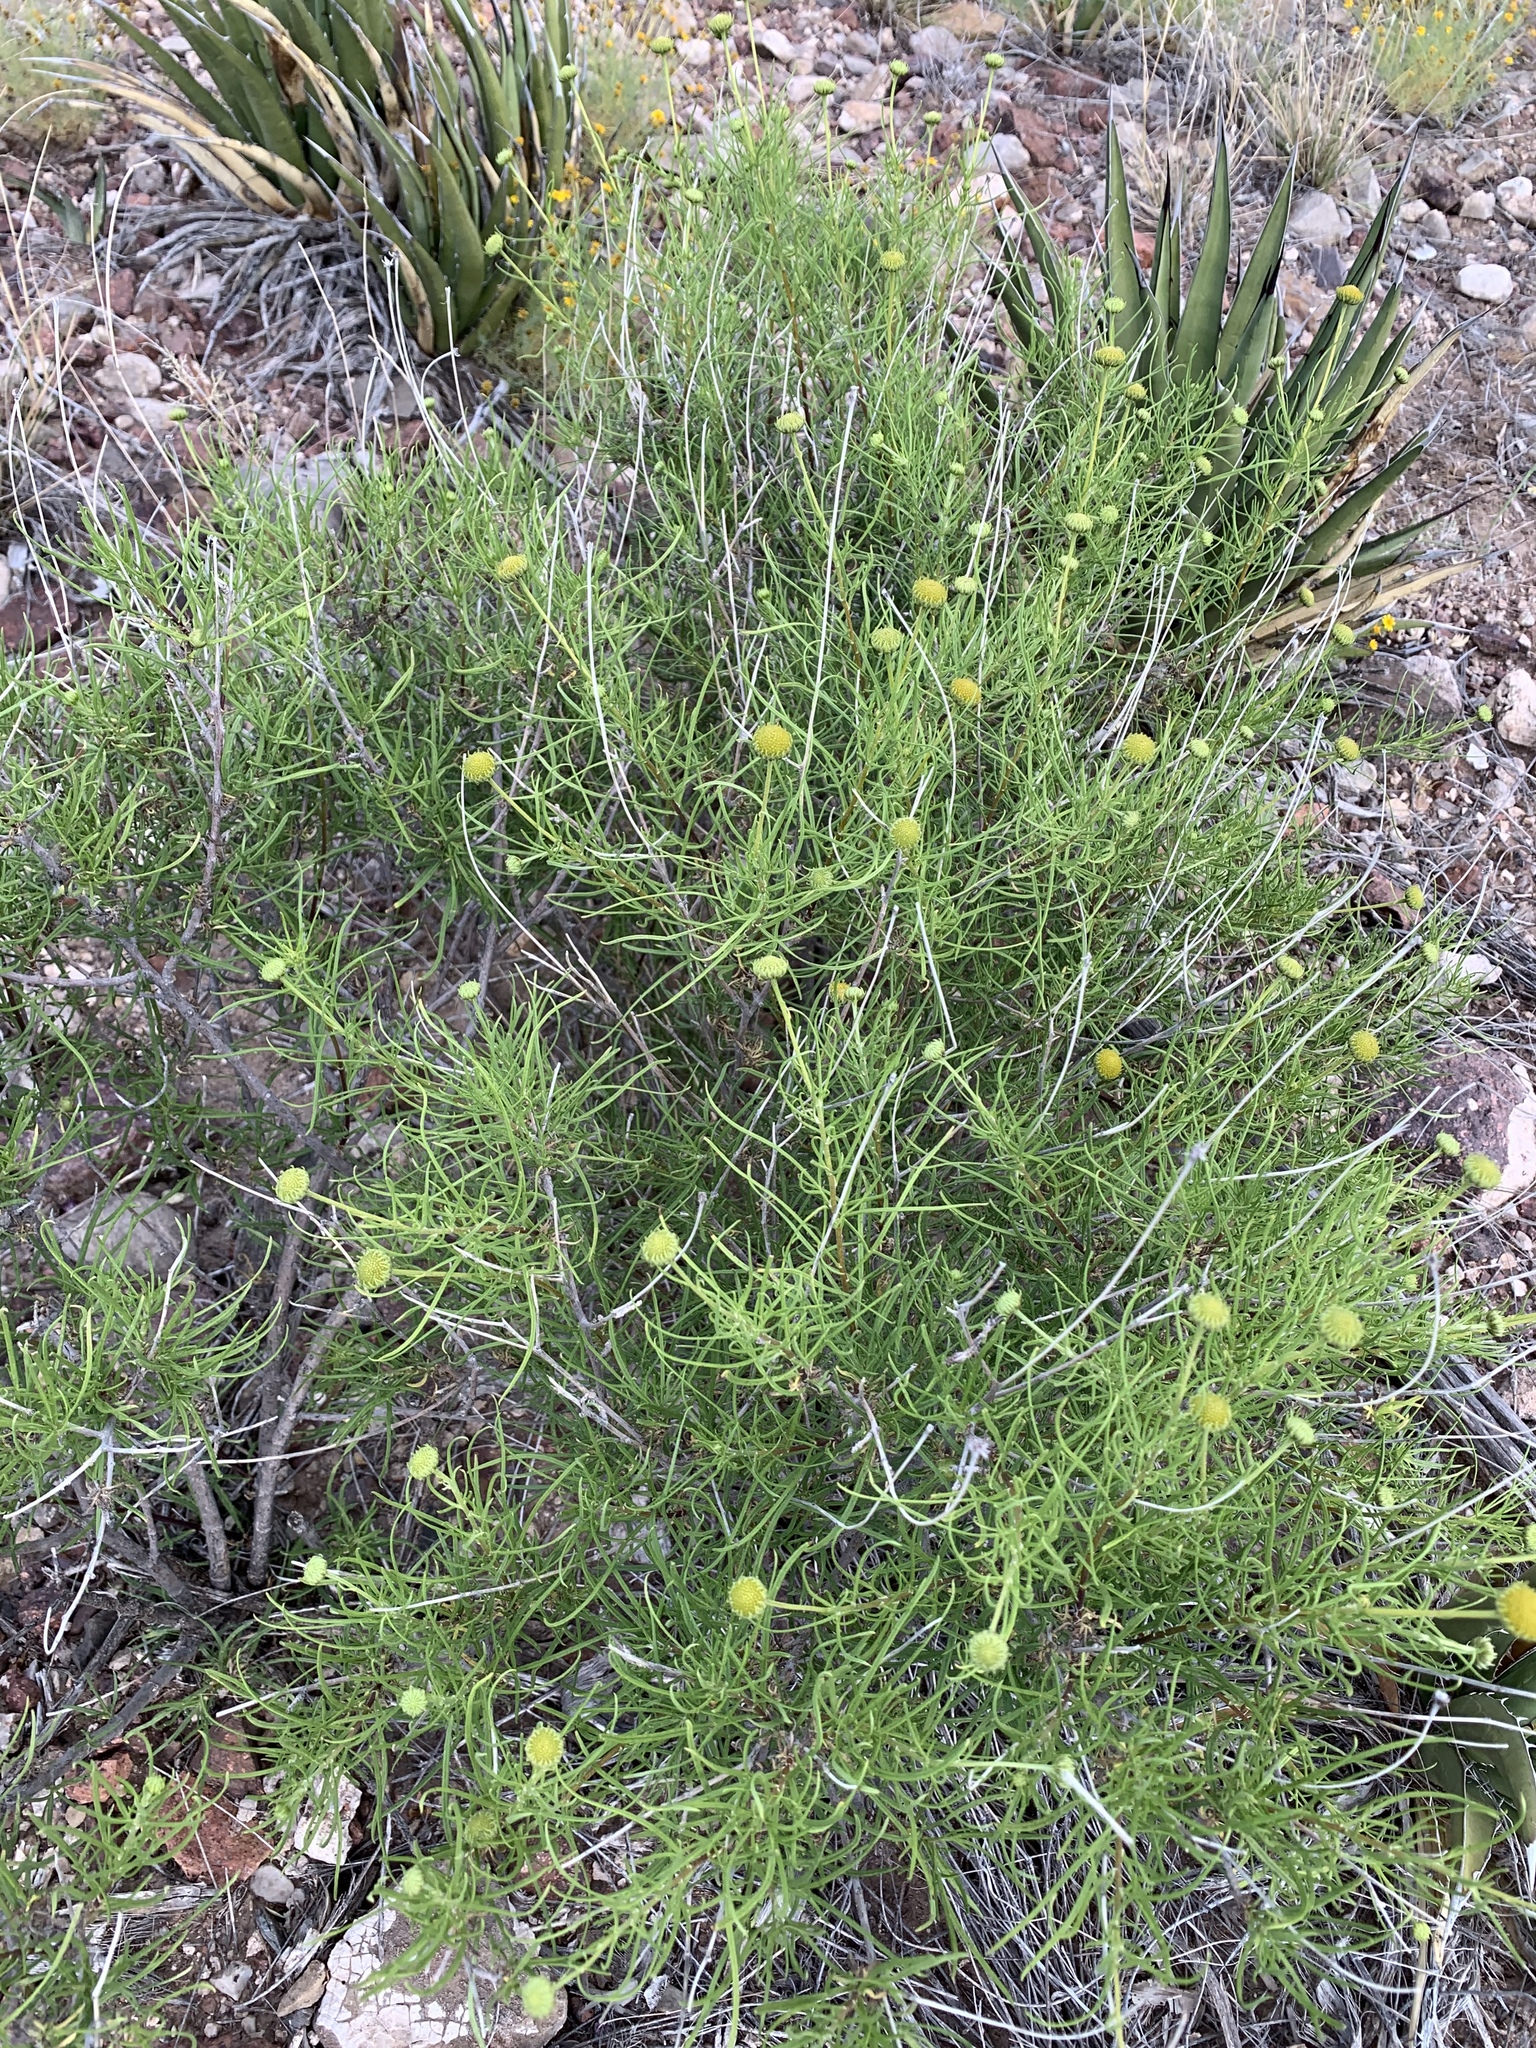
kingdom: Plantae
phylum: Tracheophyta
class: Magnoliopsida
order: Asterales
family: Asteraceae
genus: Sidneya
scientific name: Sidneya tenuifolia
